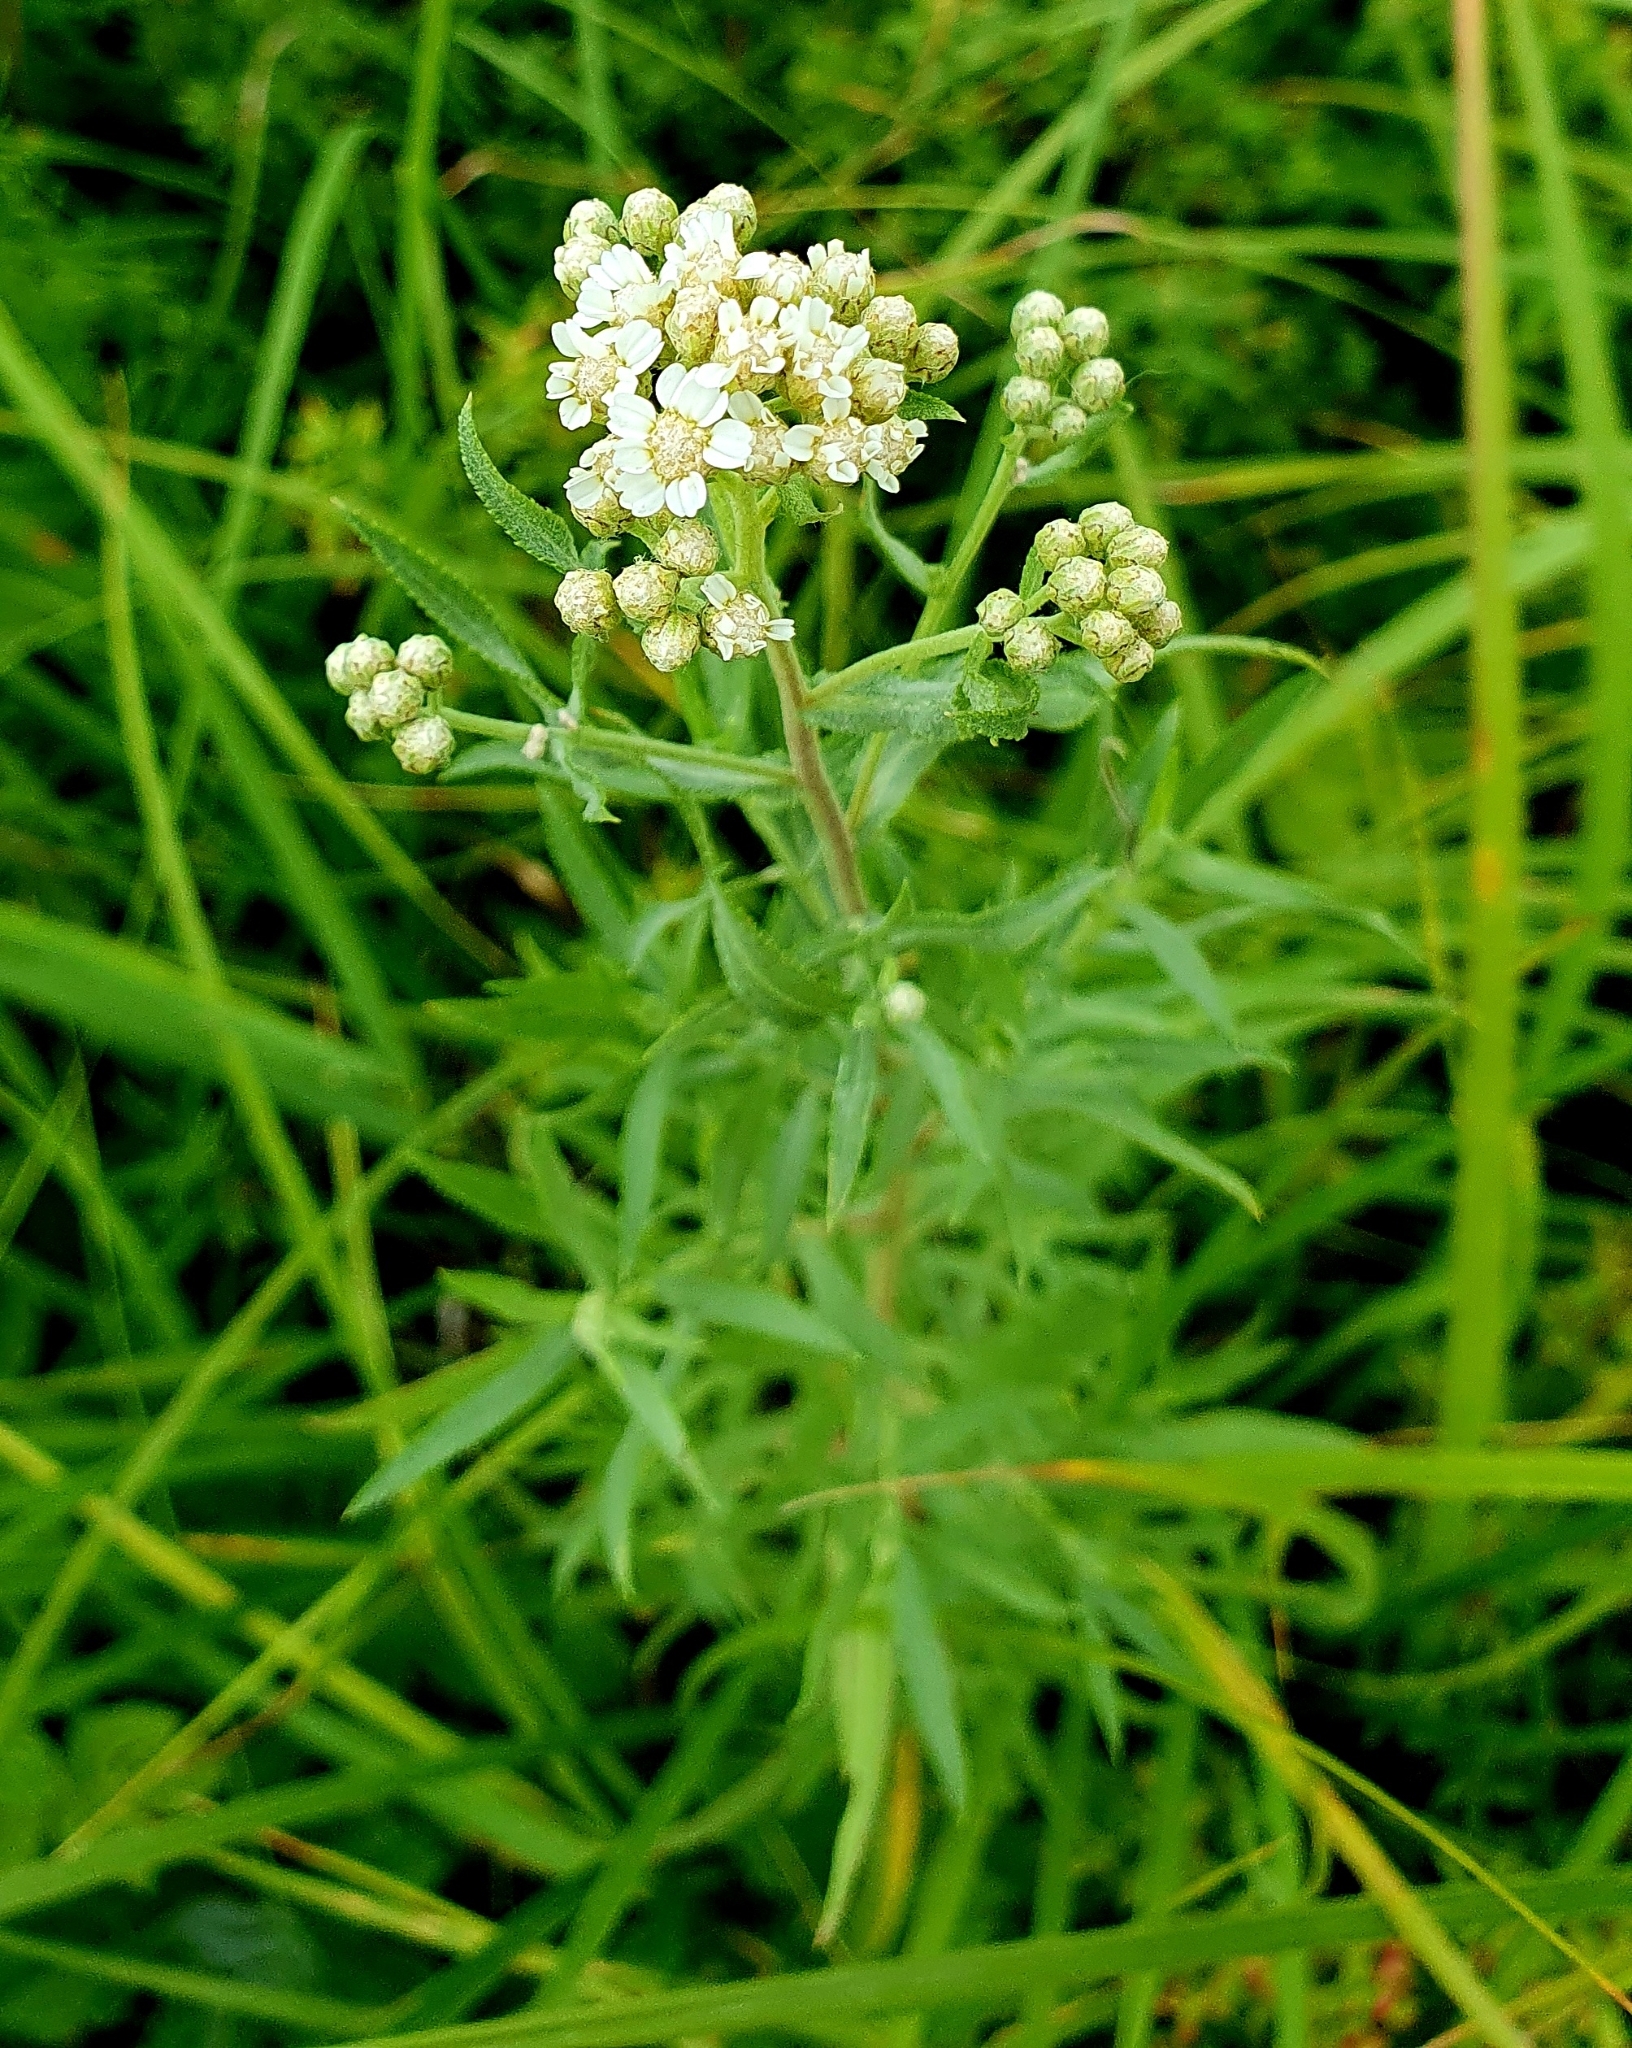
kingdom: Plantae
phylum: Tracheophyta
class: Magnoliopsida
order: Asterales
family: Asteraceae
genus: Achillea
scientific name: Achillea salicifolia
